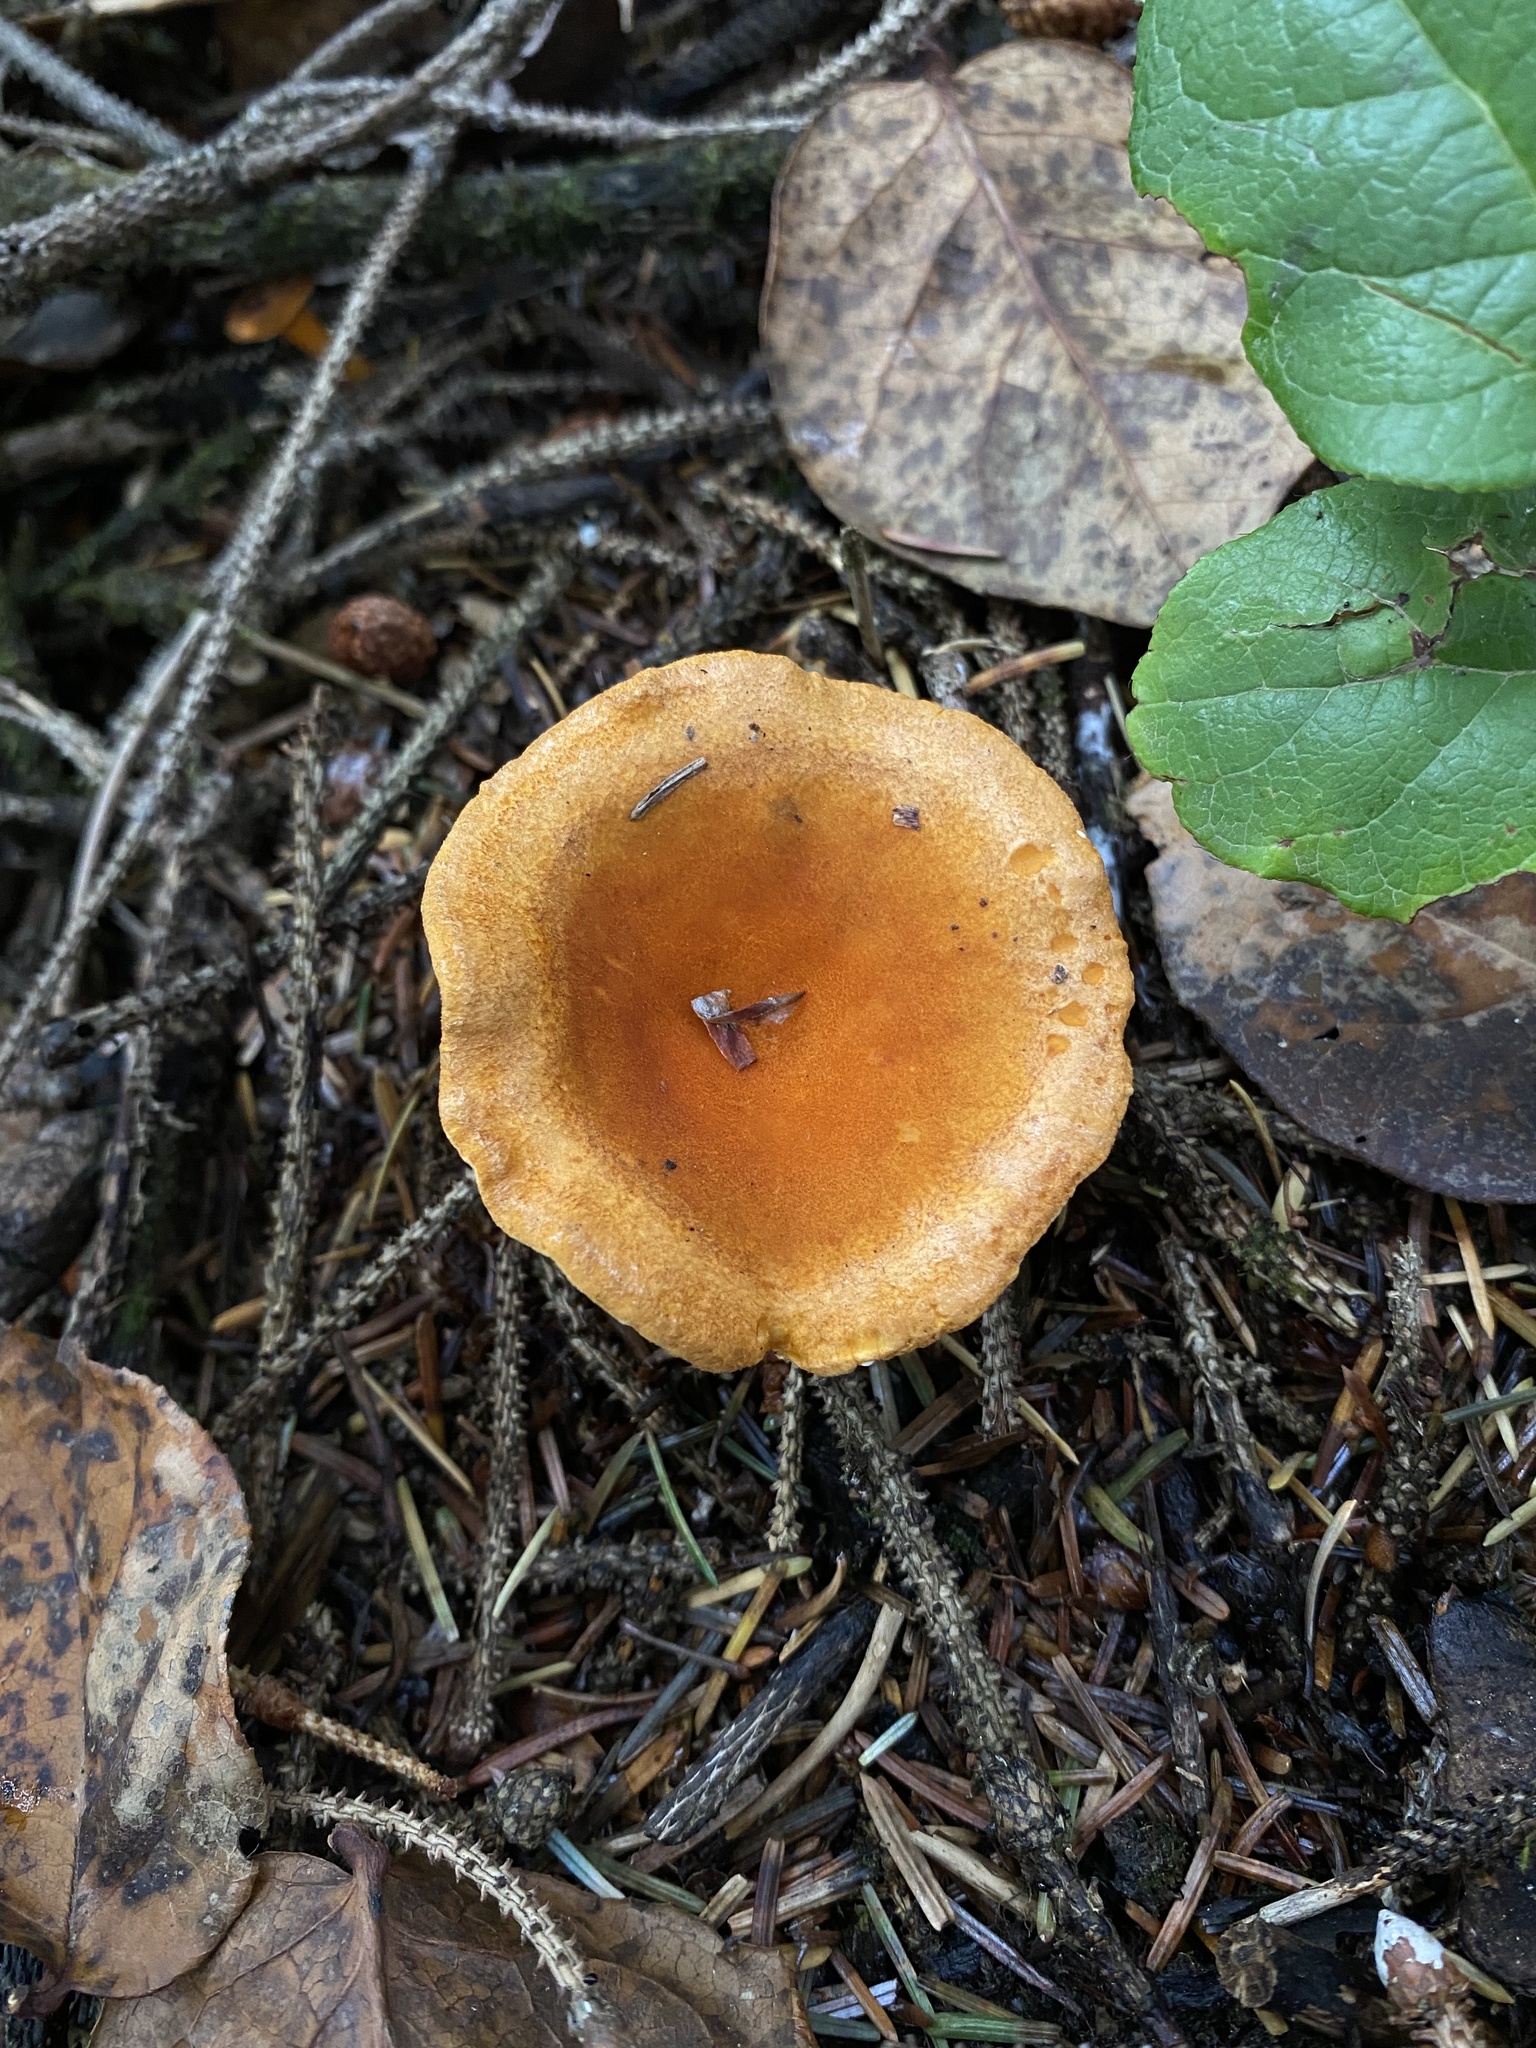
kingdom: Fungi
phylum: Basidiomycota
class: Agaricomycetes
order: Boletales
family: Hygrophoropsidaceae
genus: Hygrophoropsis
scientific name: Hygrophoropsis aurantiaca
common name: False chanterelle
